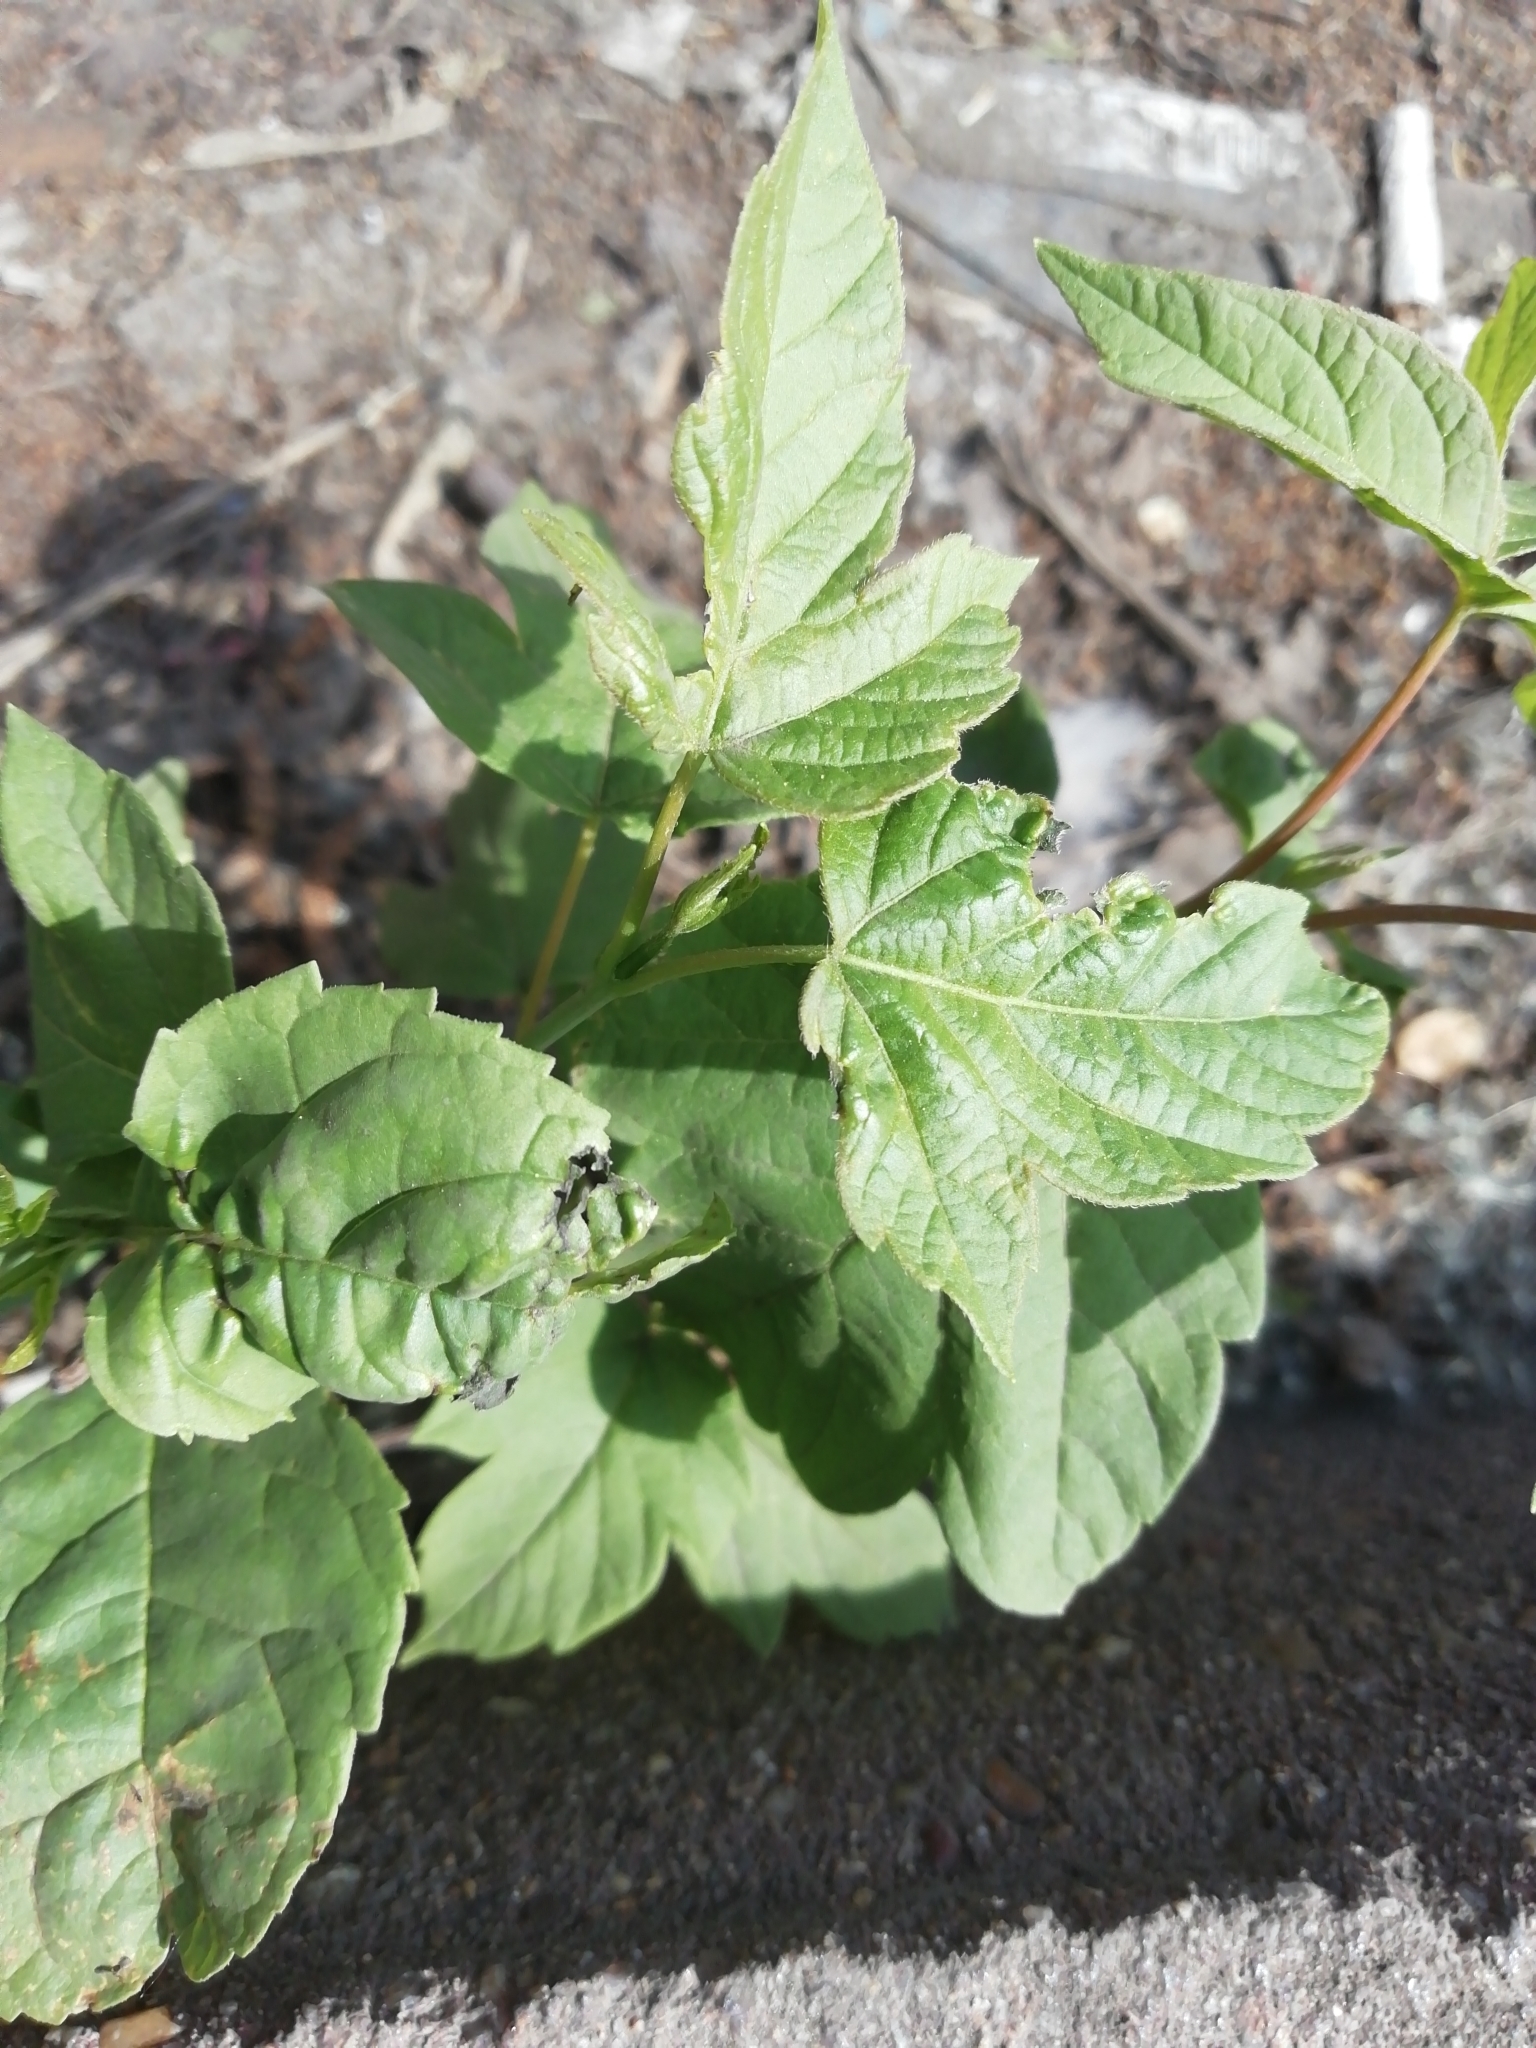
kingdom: Plantae
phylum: Tracheophyta
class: Magnoliopsida
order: Sapindales
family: Sapindaceae
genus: Acer
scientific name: Acer negundo
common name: Ashleaf maple
